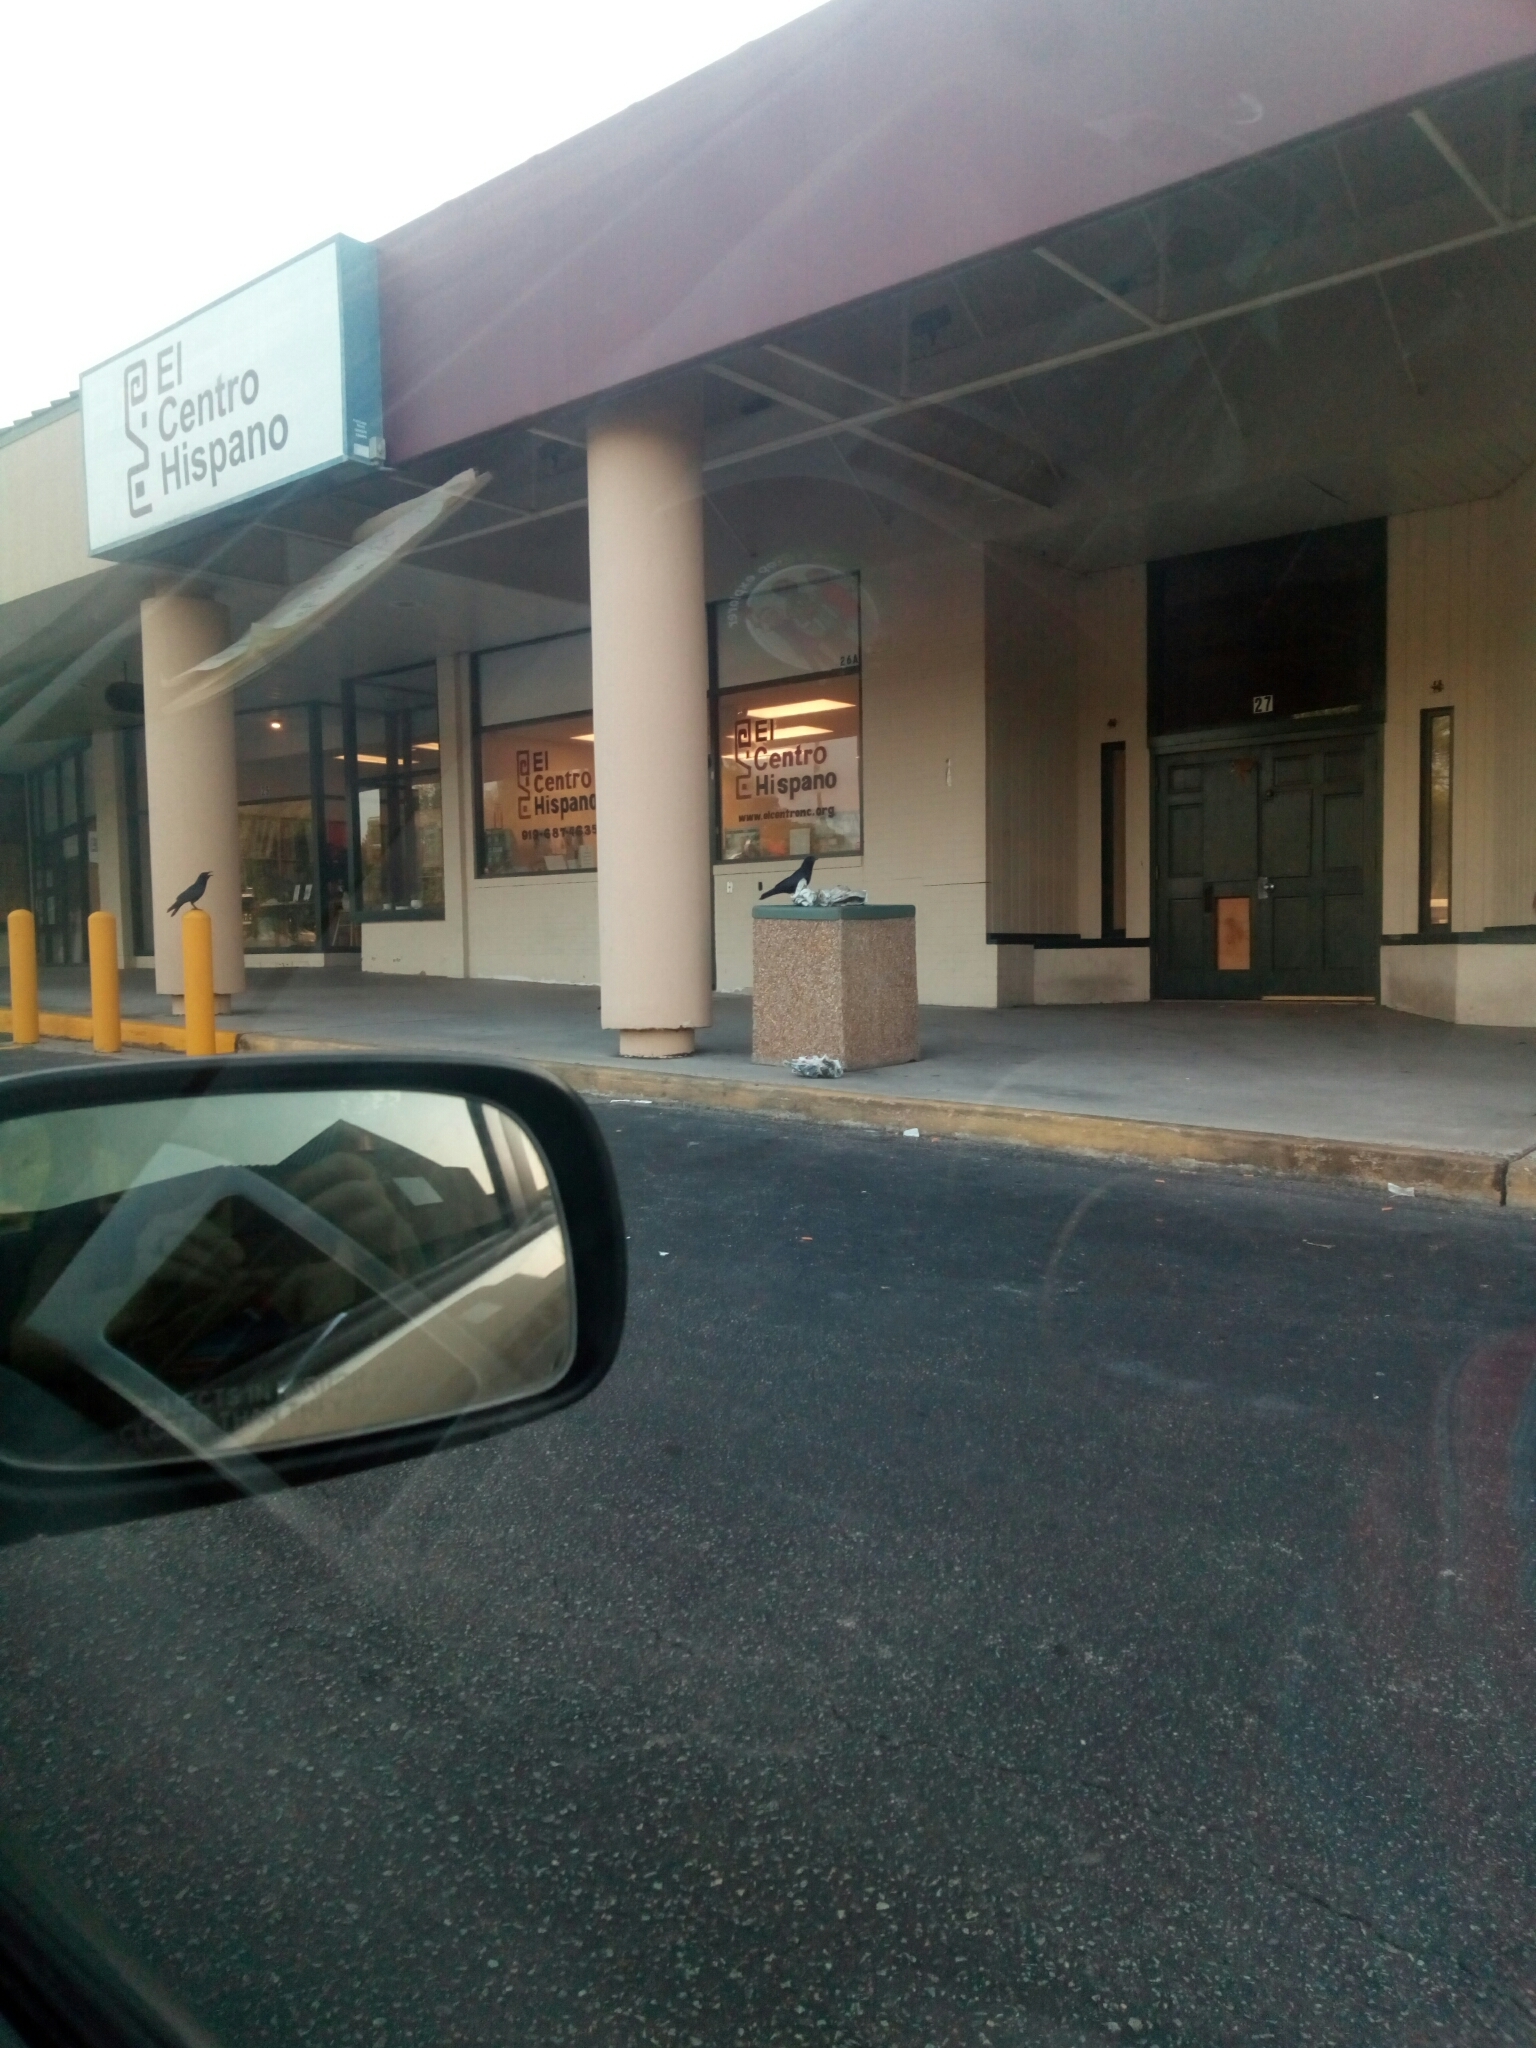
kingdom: Animalia
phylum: Chordata
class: Aves
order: Passeriformes
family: Corvidae
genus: Corvus
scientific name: Corvus
